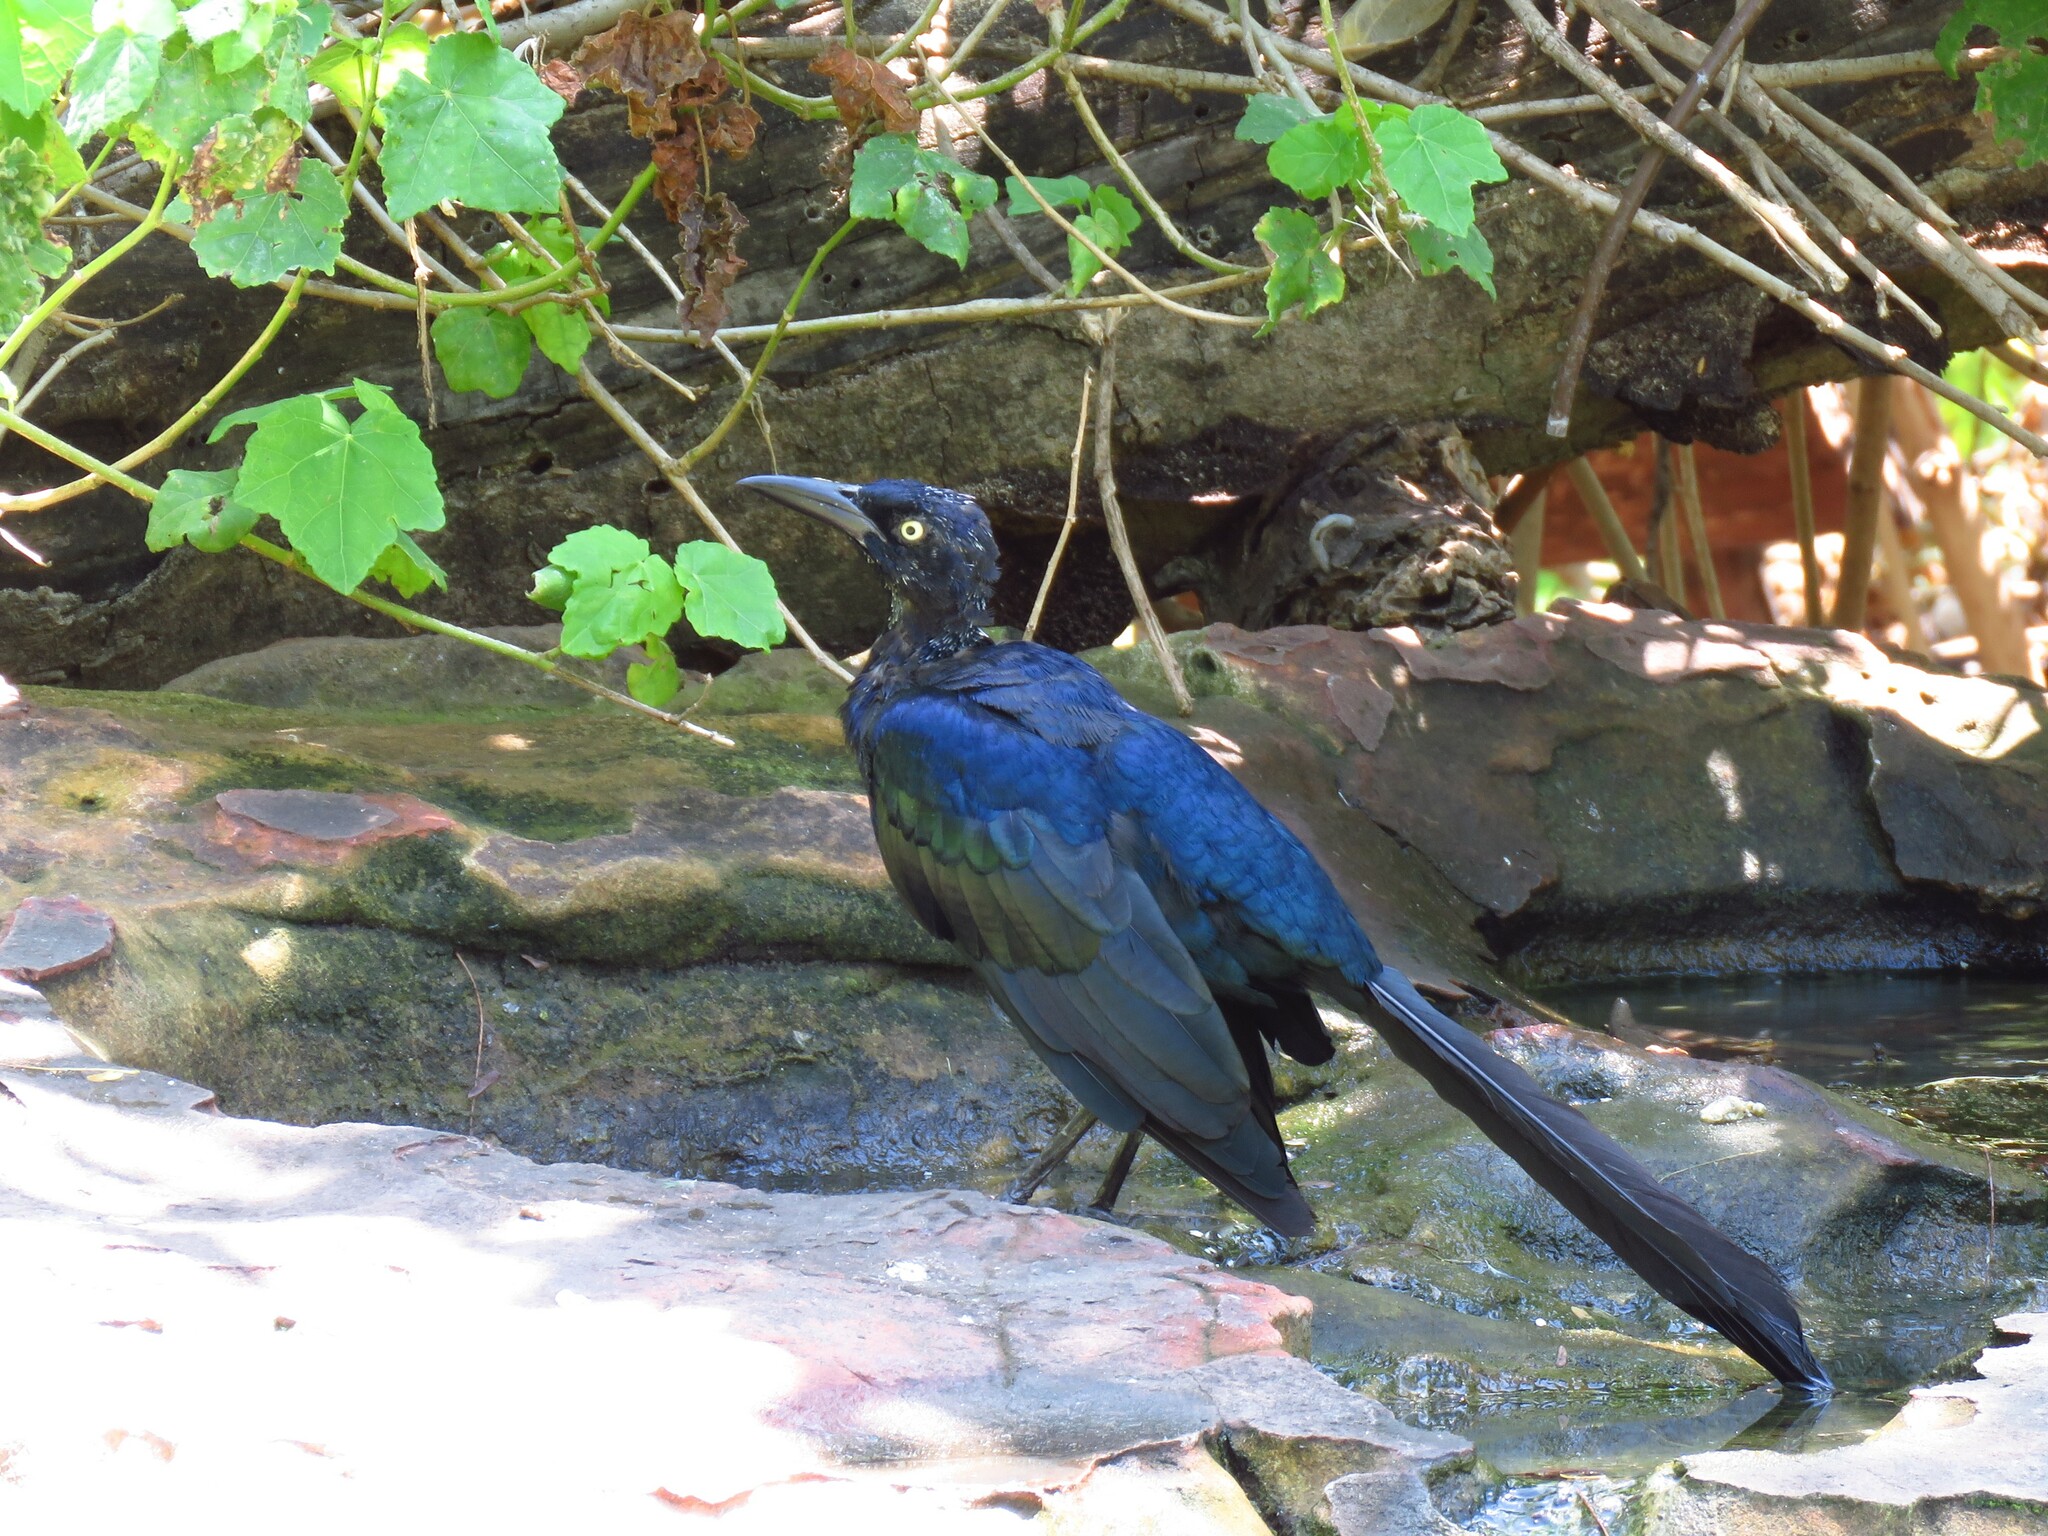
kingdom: Animalia
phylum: Chordata
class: Aves
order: Passeriformes
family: Icteridae
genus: Quiscalus
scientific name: Quiscalus mexicanus
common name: Great-tailed grackle
